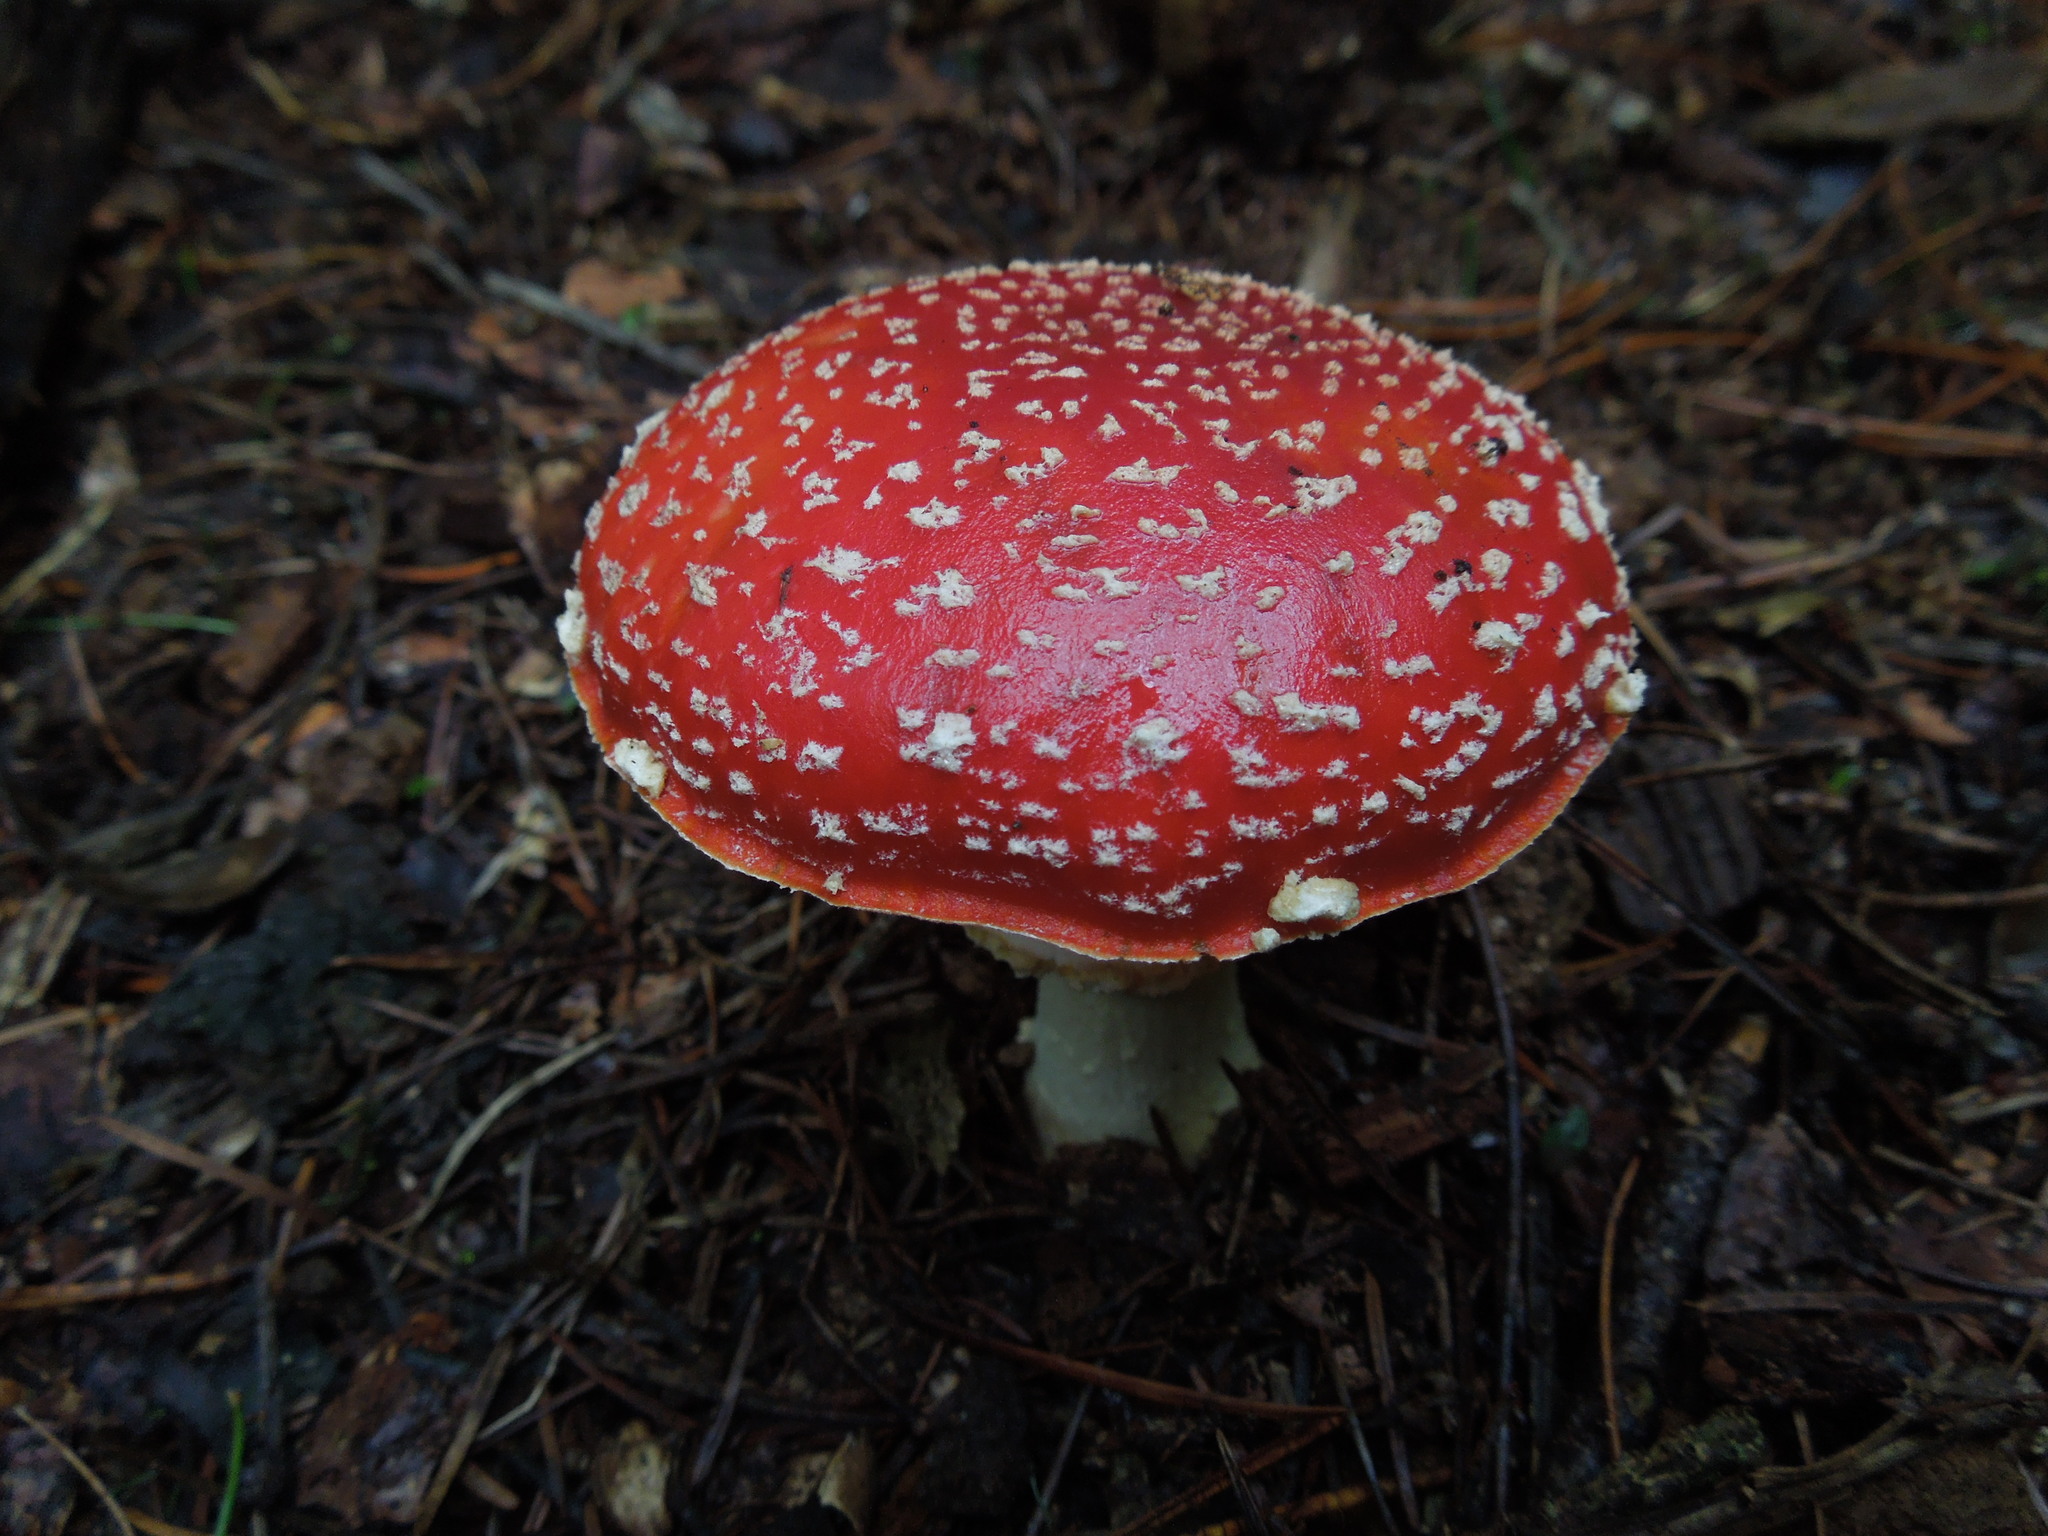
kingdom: Fungi
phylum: Basidiomycota
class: Agaricomycetes
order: Agaricales
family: Amanitaceae
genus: Amanita
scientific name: Amanita muscaria
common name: Fly agaric
